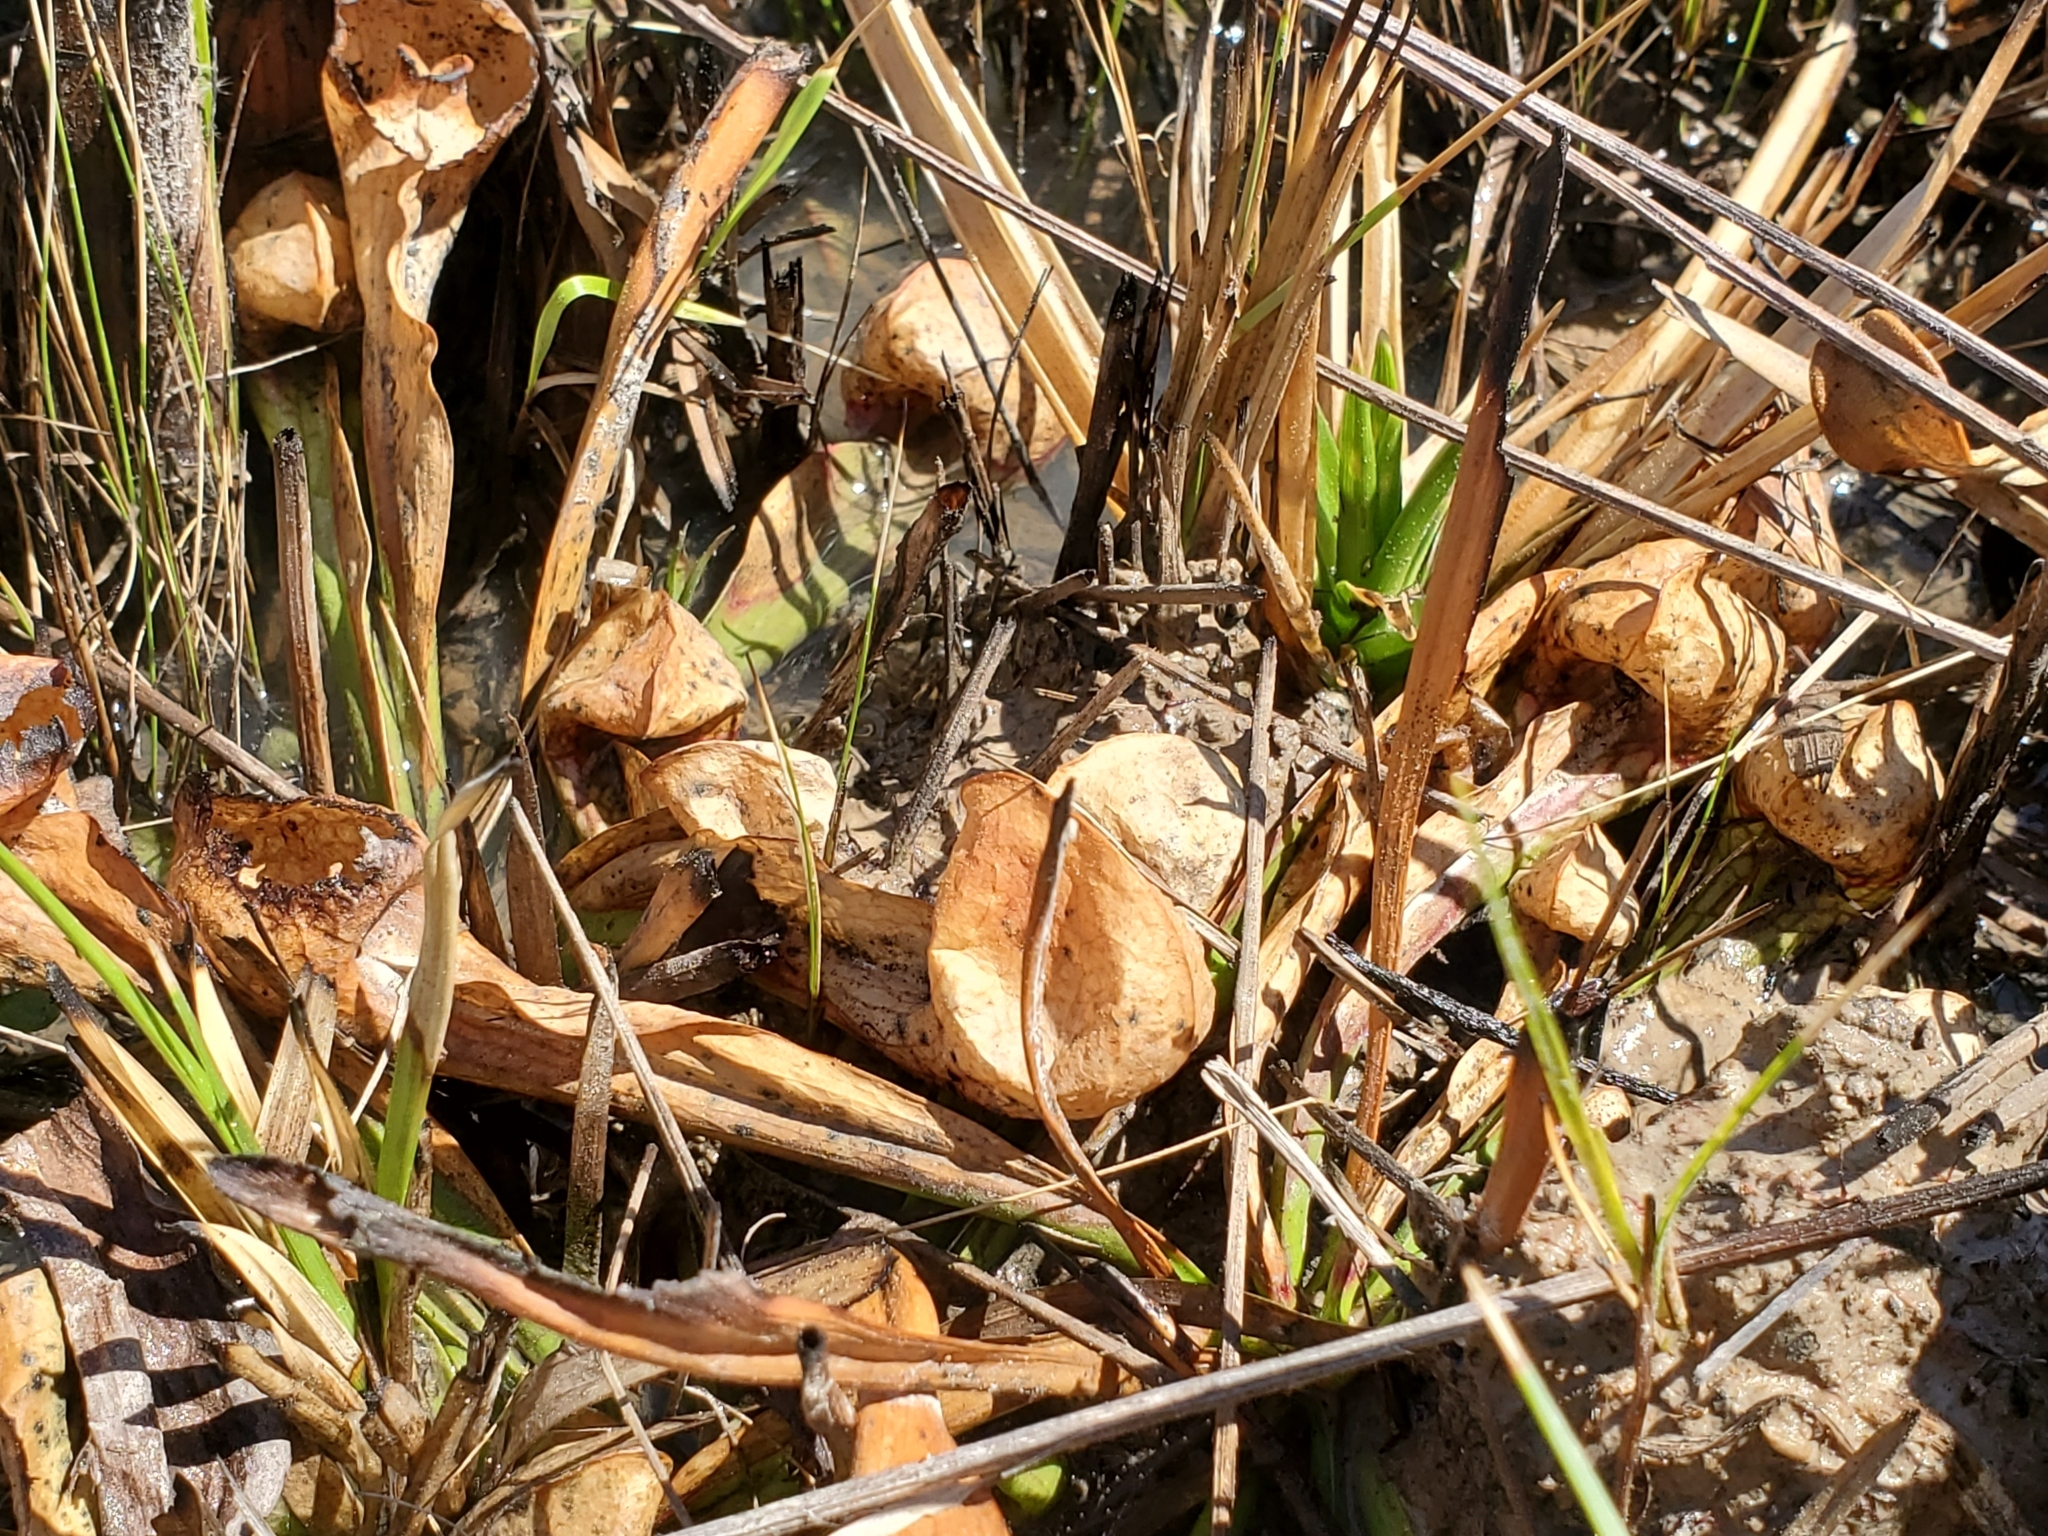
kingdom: Plantae
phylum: Tracheophyta
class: Magnoliopsida
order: Ericales
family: Sarraceniaceae
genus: Sarracenia
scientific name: Sarracenia psittacina
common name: Parrot pitcherplant
